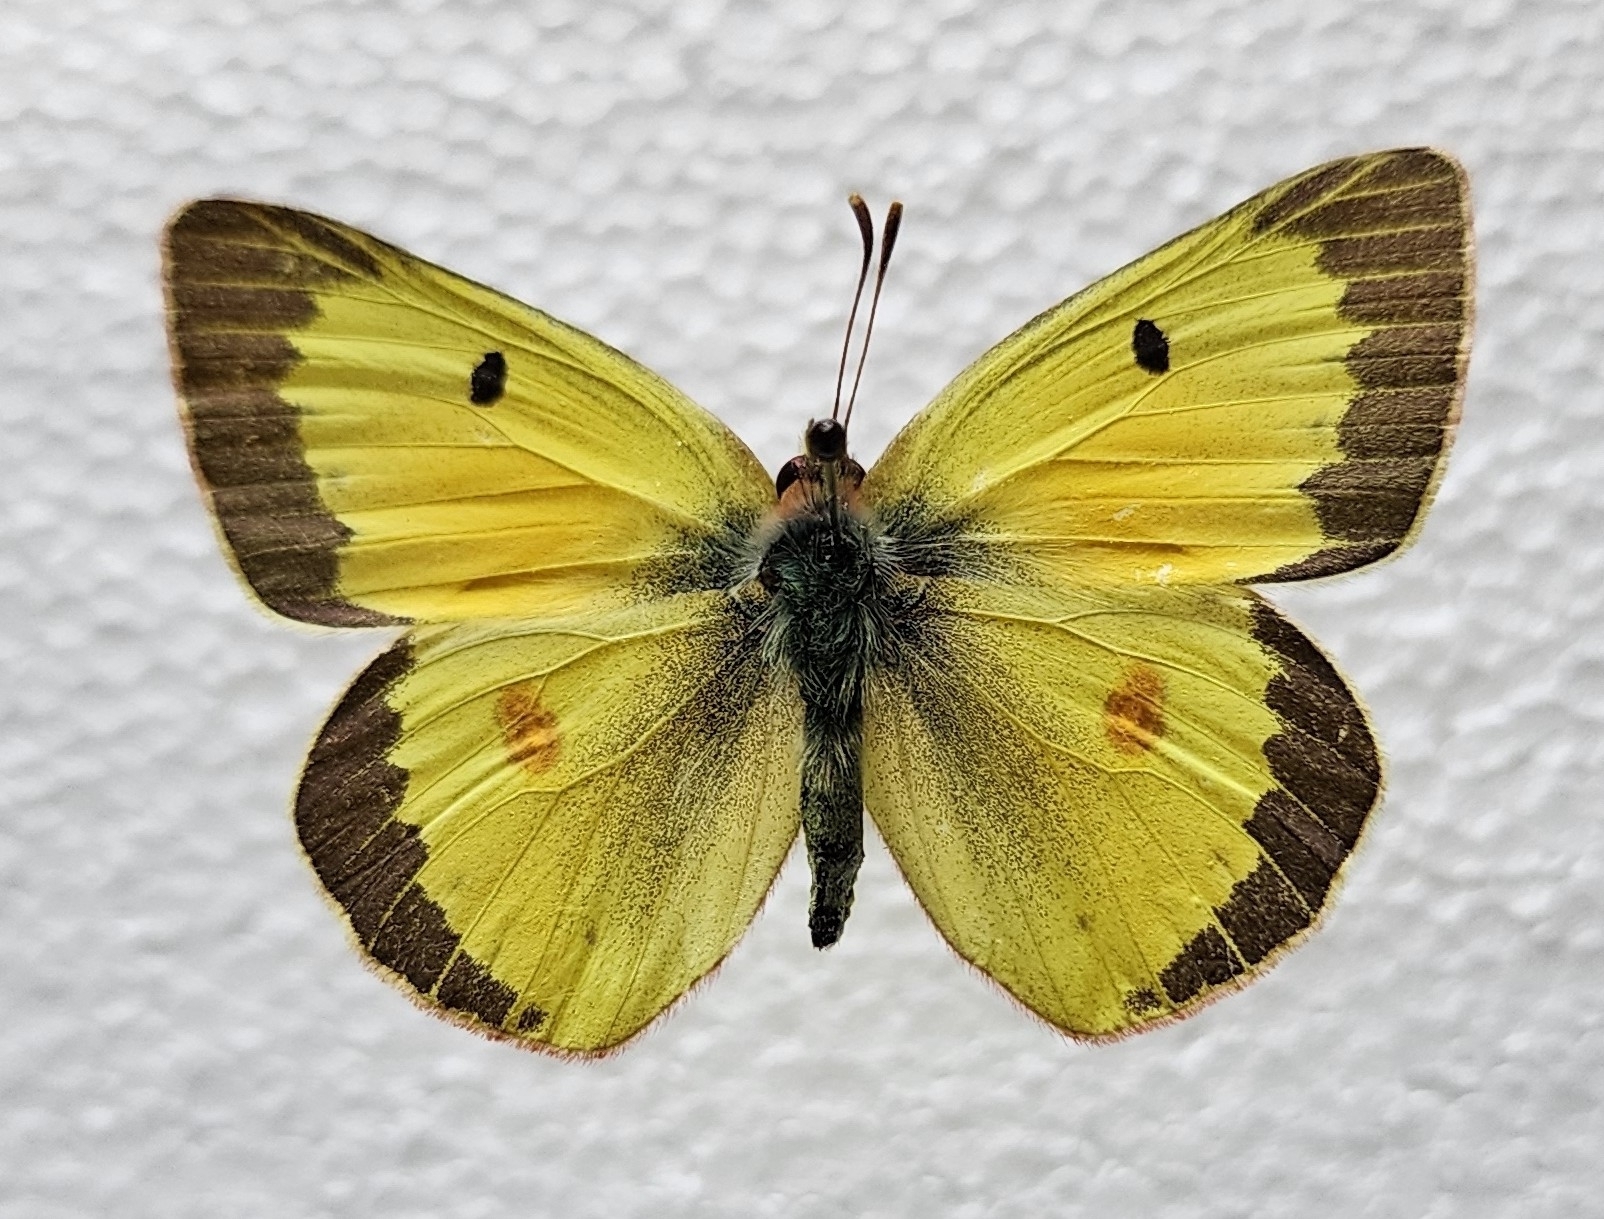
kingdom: Animalia
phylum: Arthropoda
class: Insecta
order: Lepidoptera
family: Pieridae
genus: Colias
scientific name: Colias eurytheme
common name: Alfalfa butterfly
